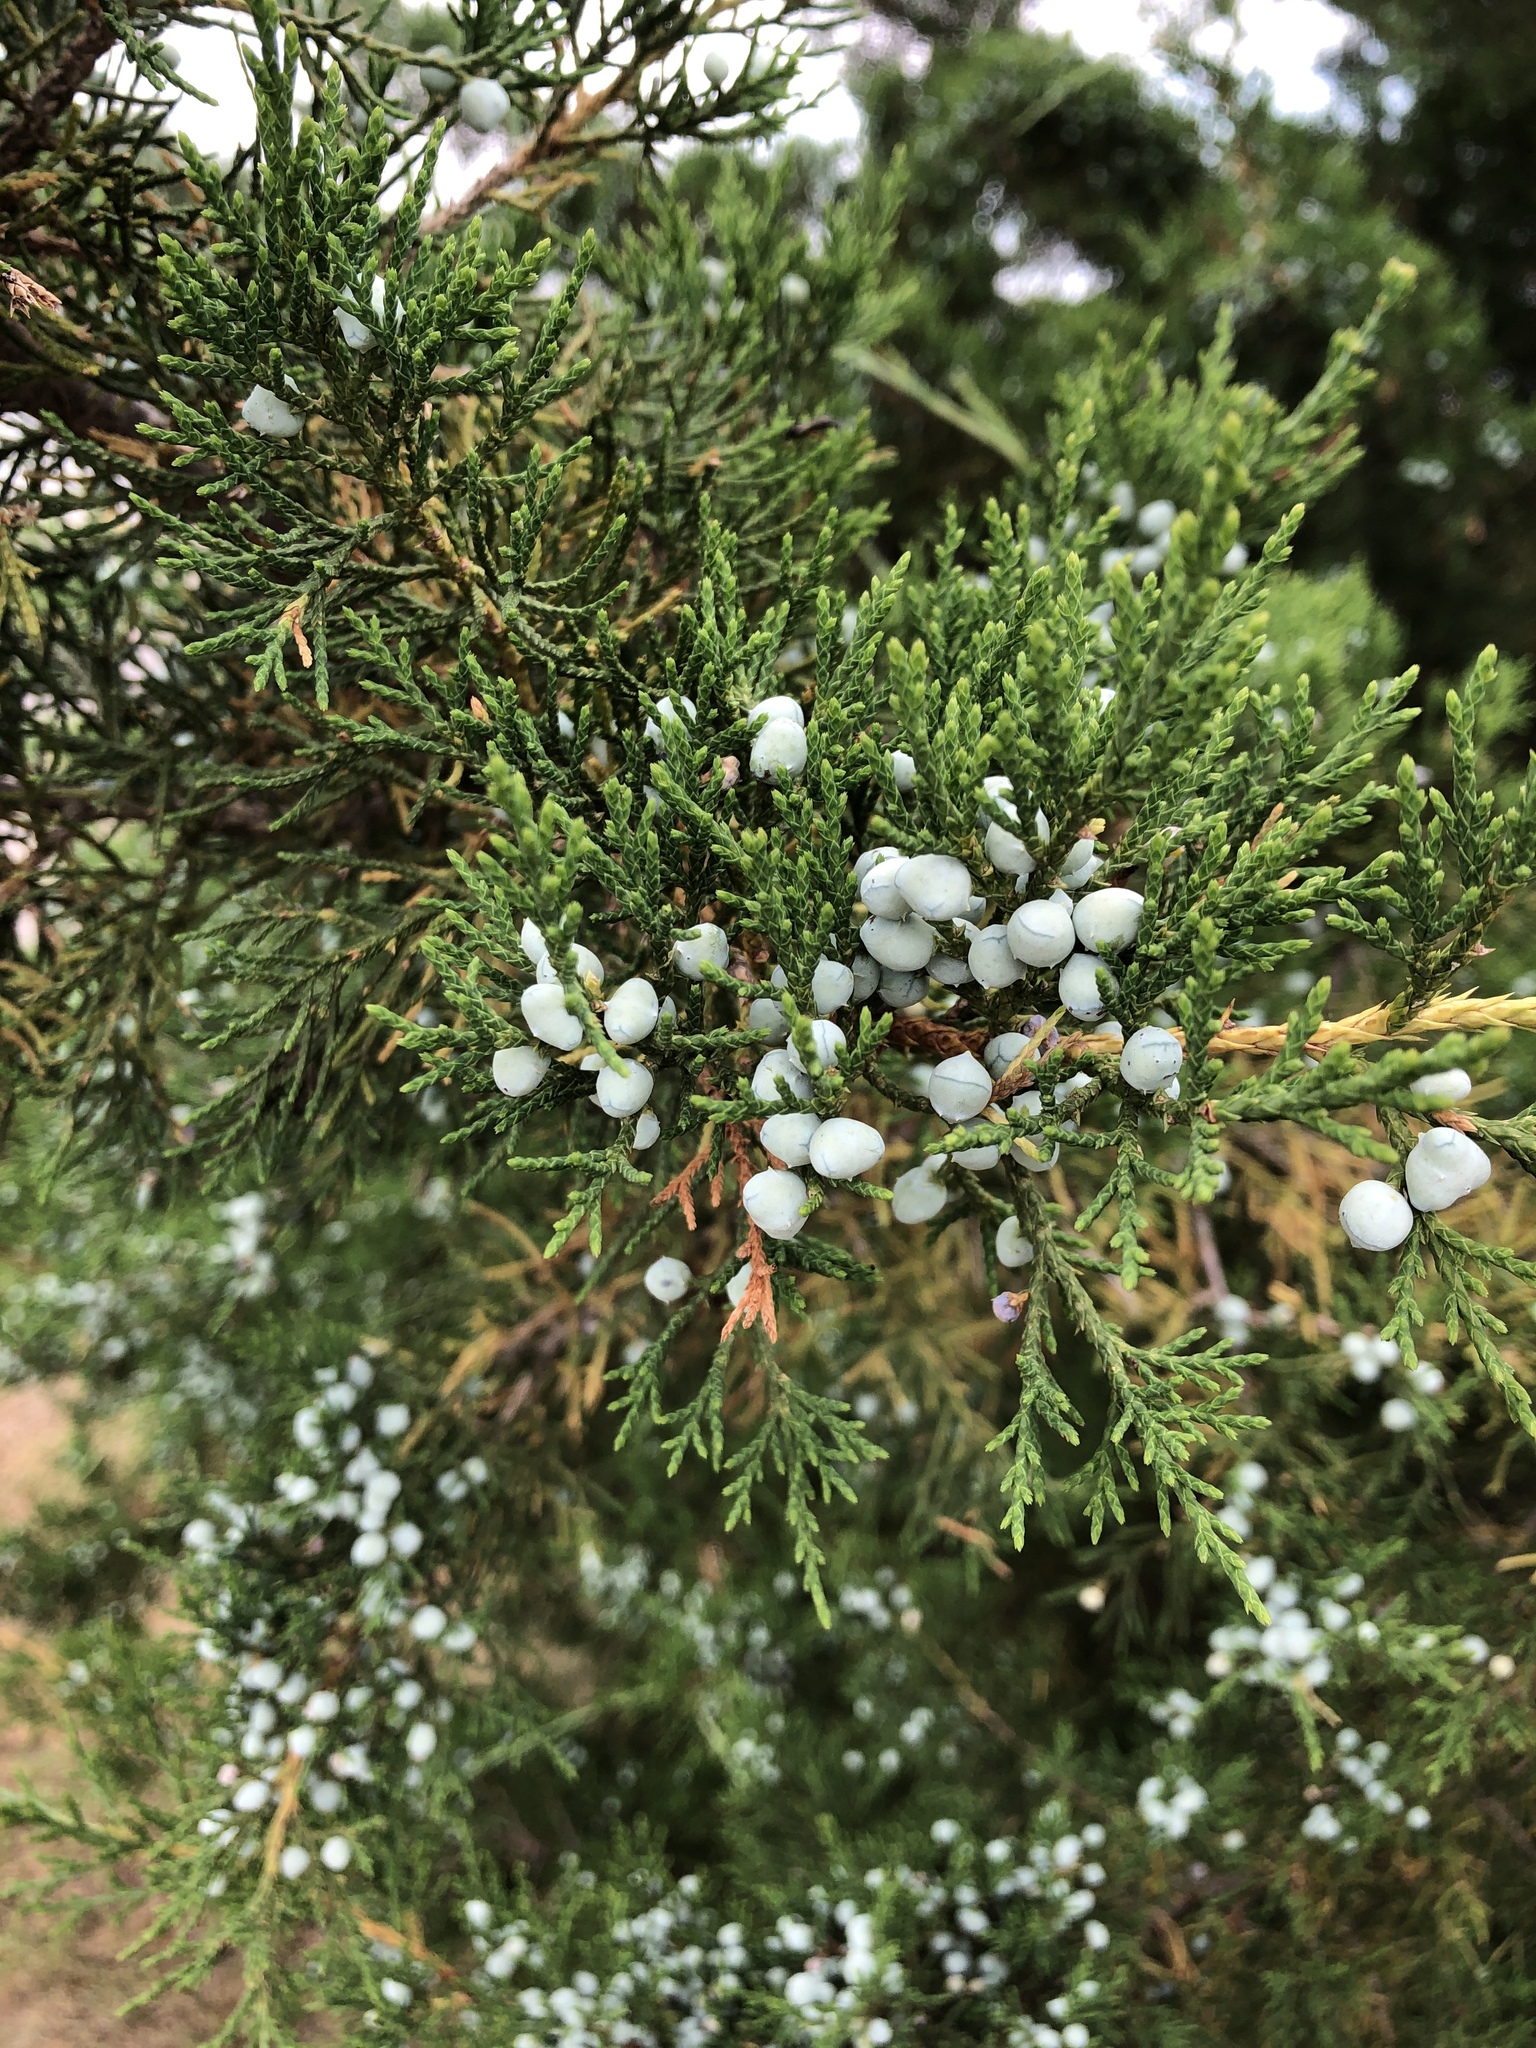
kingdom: Plantae
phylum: Tracheophyta
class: Pinopsida
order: Pinales
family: Cupressaceae
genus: Juniperus
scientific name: Juniperus virginiana
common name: Red juniper
